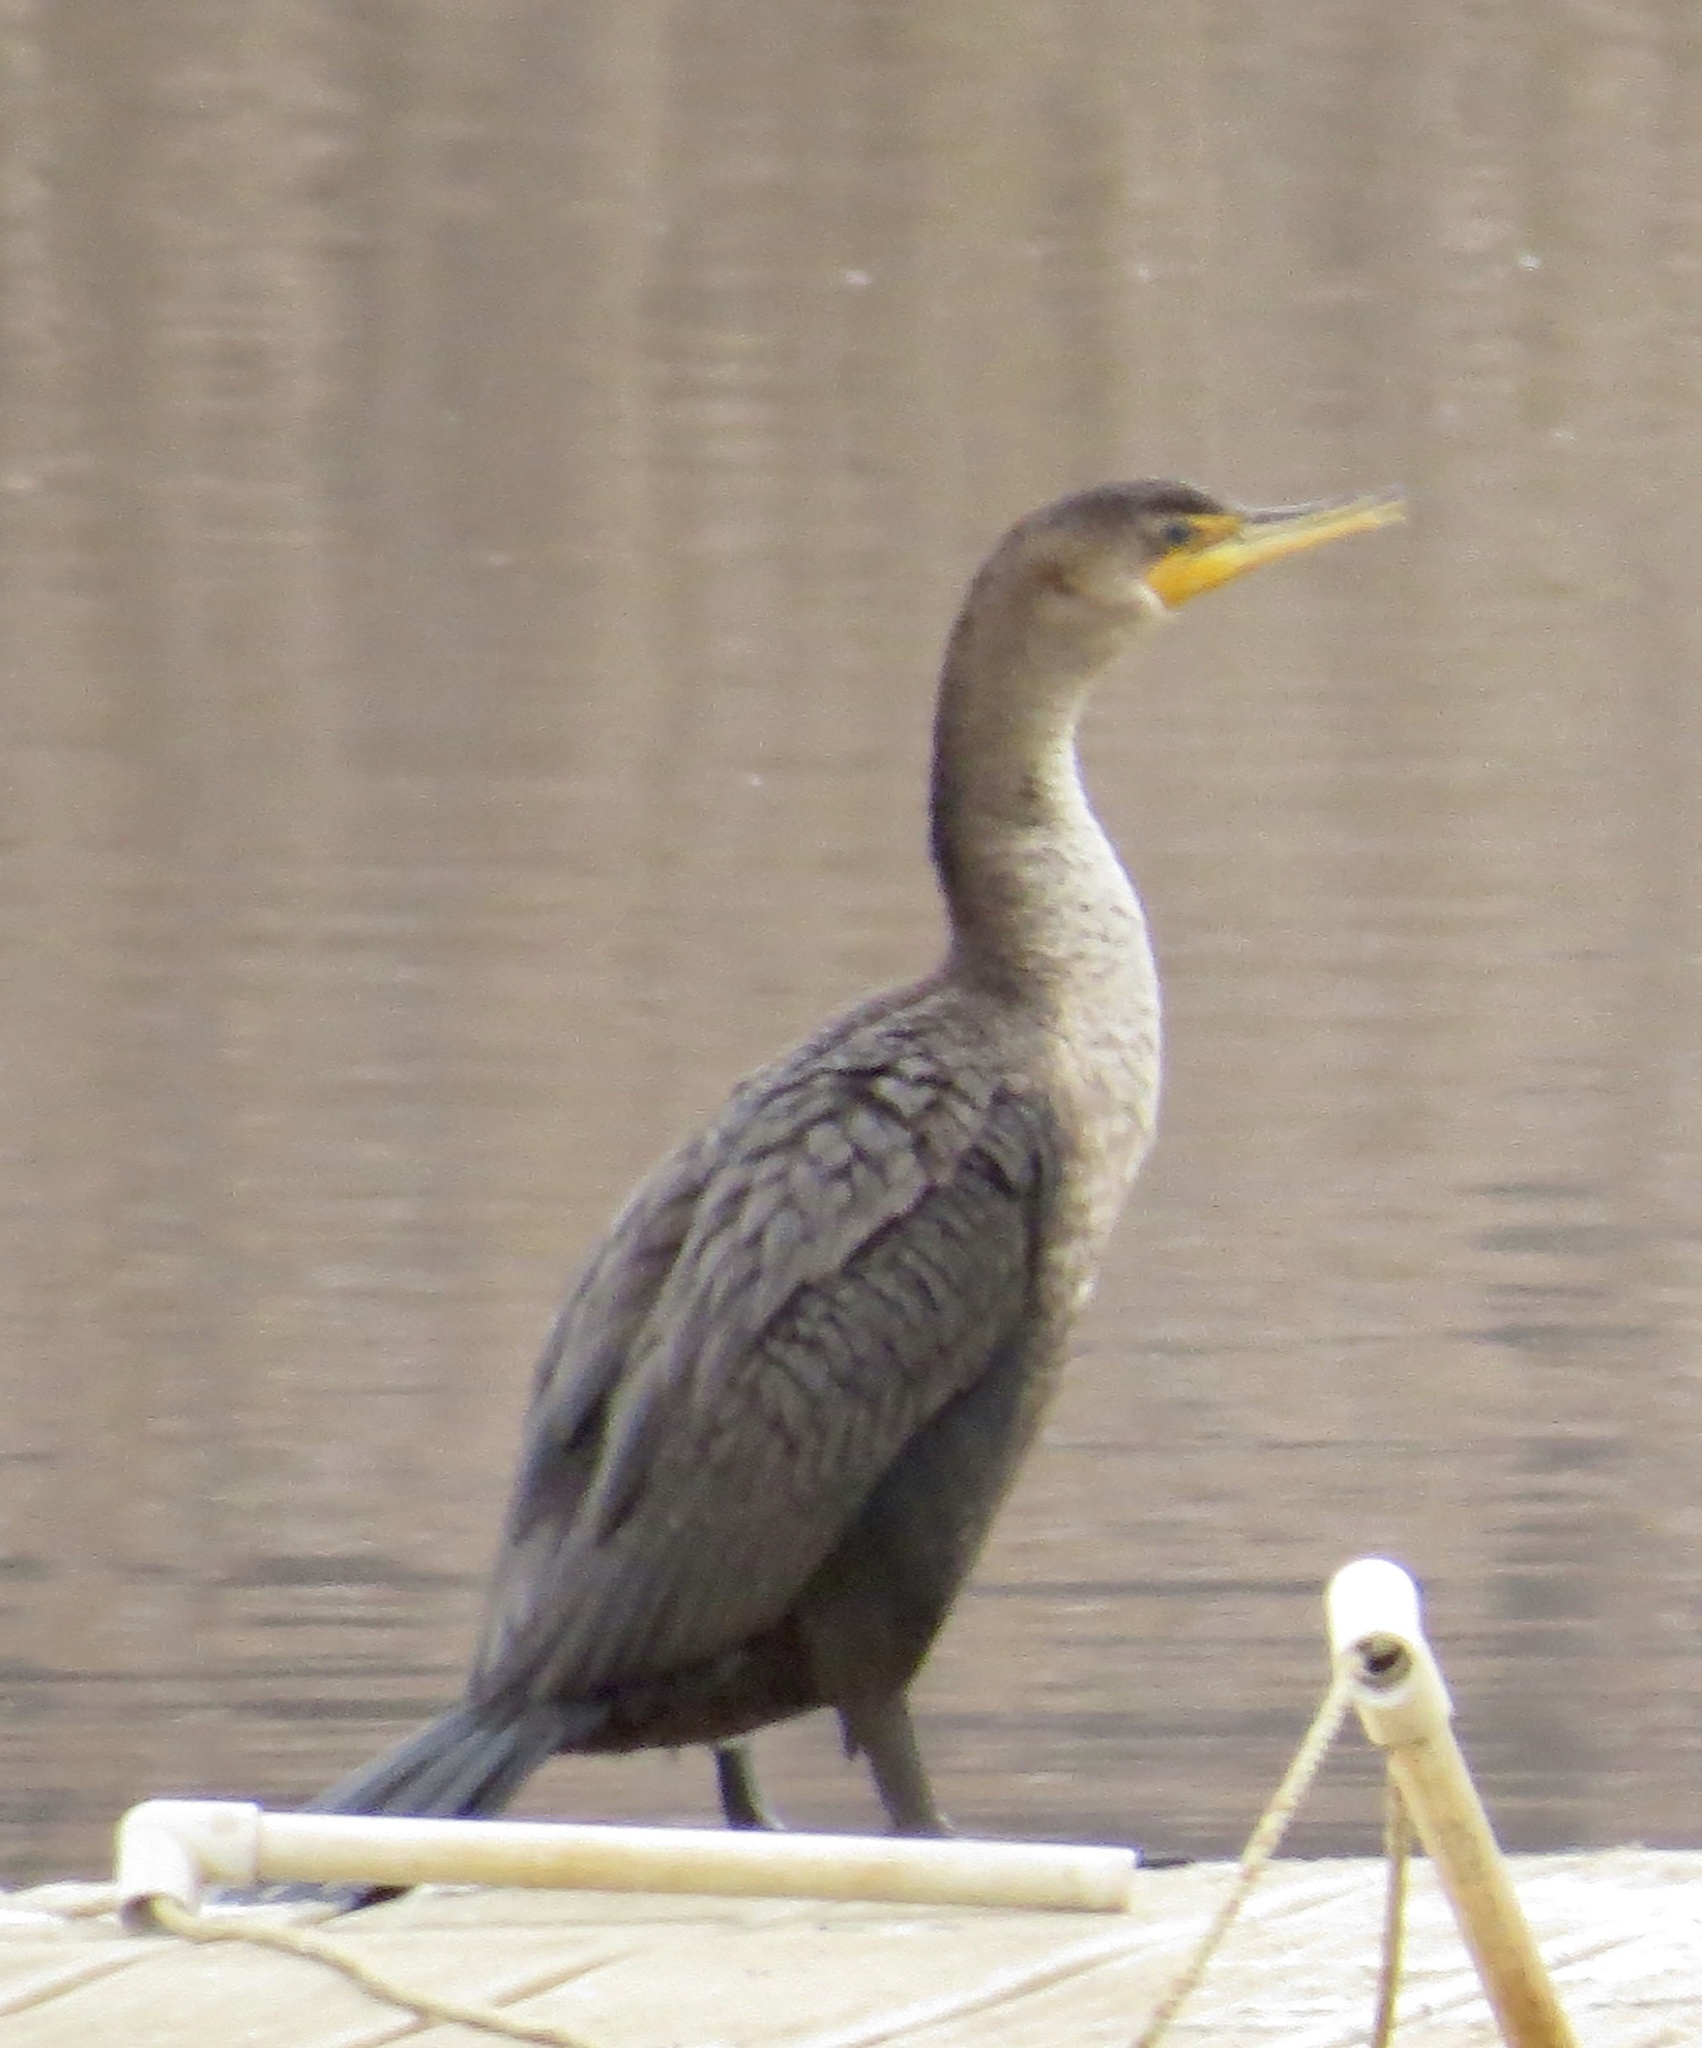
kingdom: Animalia
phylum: Chordata
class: Aves
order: Suliformes
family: Phalacrocoracidae
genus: Phalacrocorax
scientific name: Phalacrocorax auritus
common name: Double-crested cormorant
